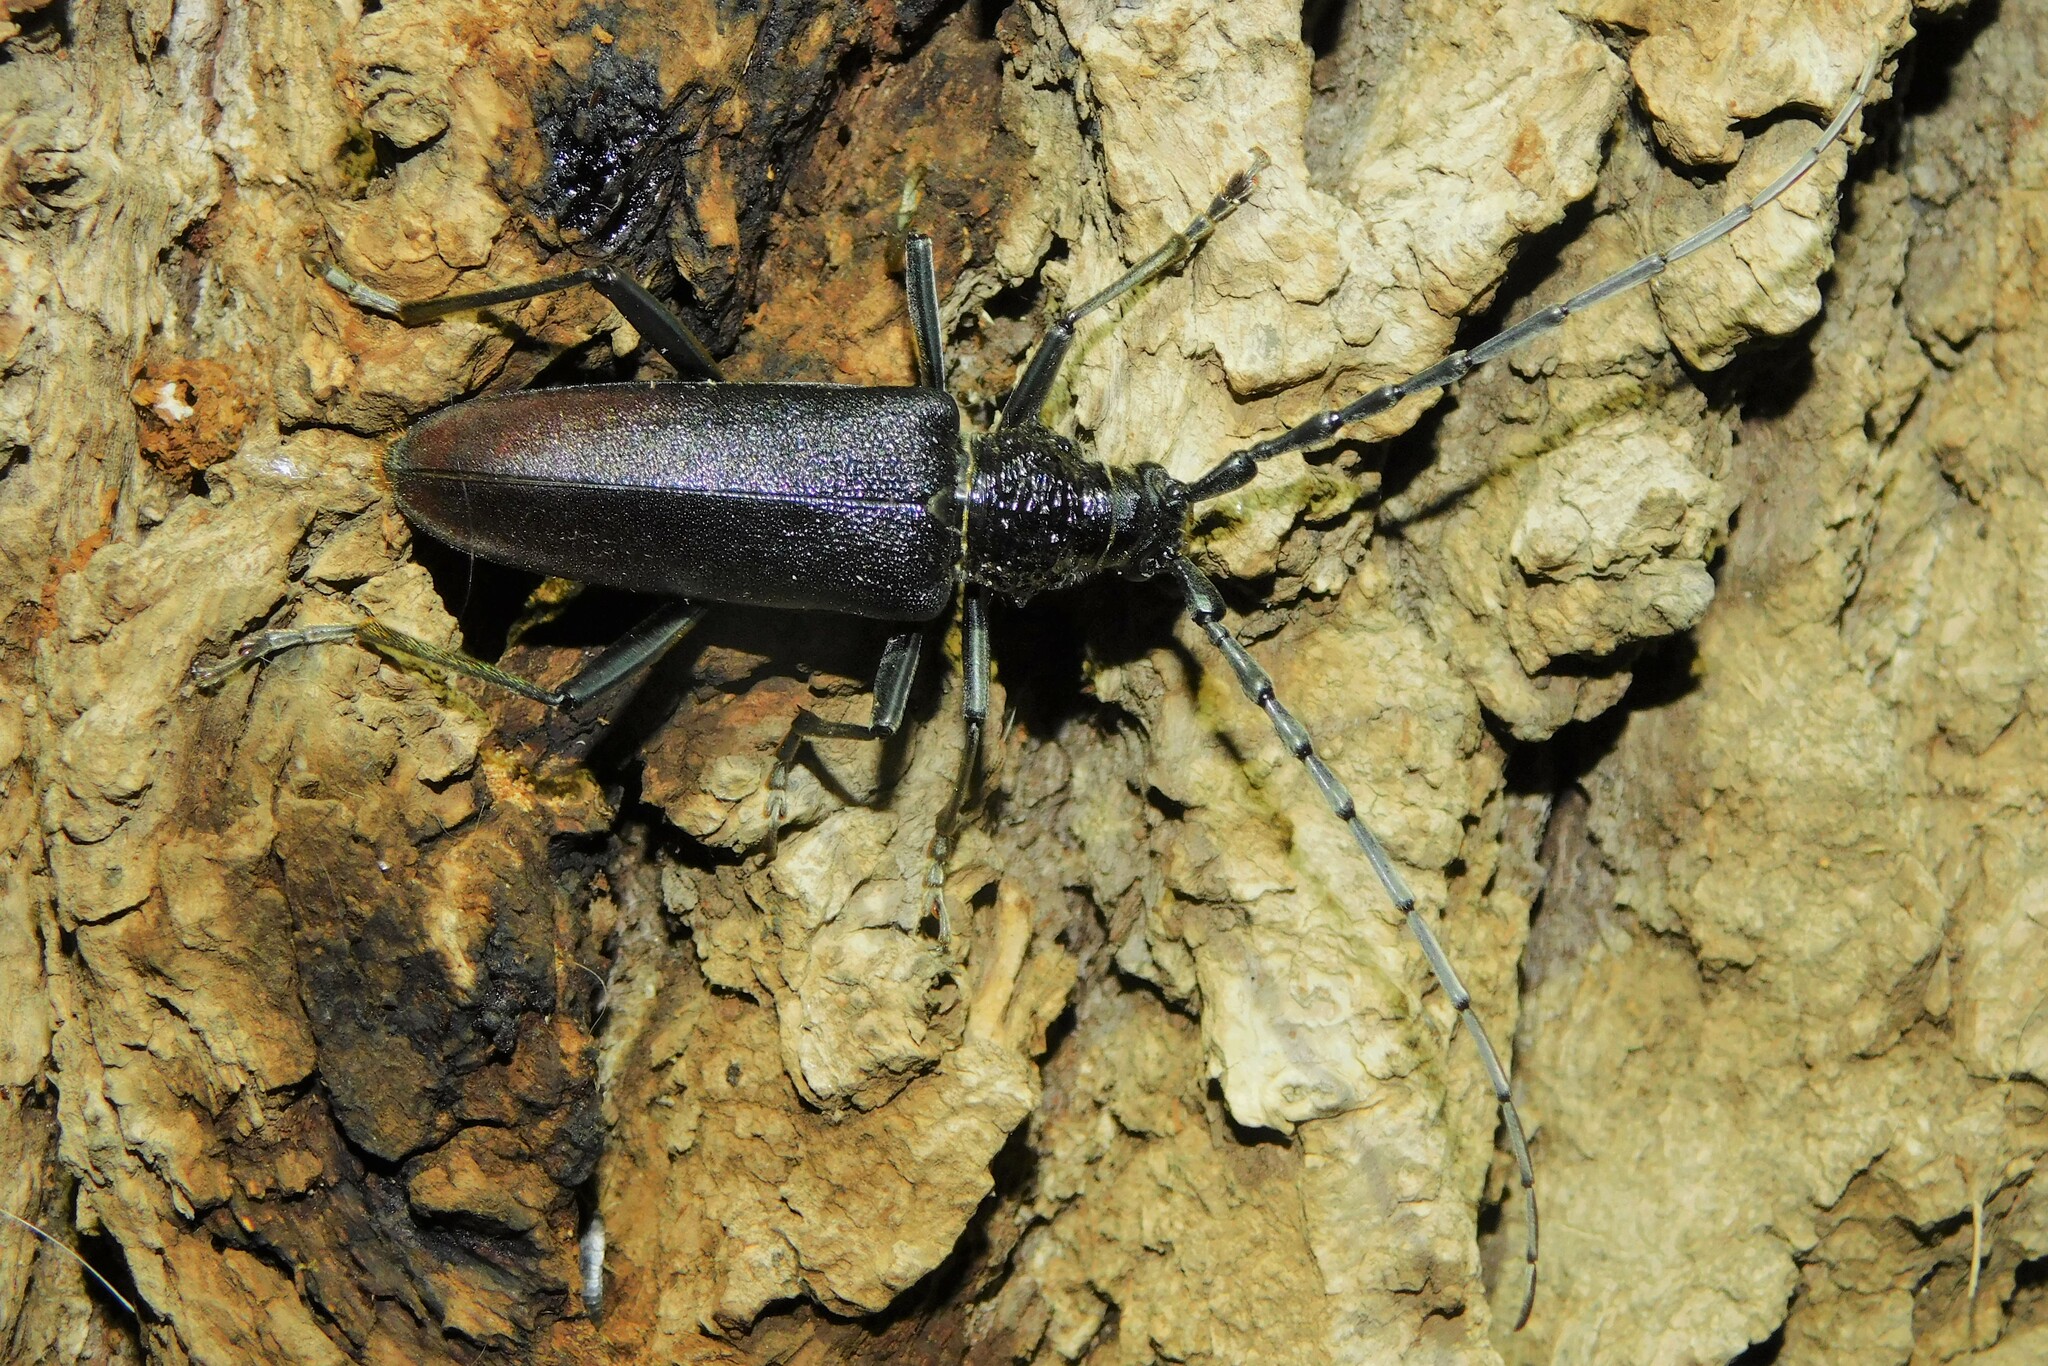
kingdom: Animalia
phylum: Arthropoda
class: Insecta
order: Coleoptera
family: Cerambycidae
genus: Cerambyx
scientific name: Cerambyx cerdo
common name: Cerambyx longicorn
